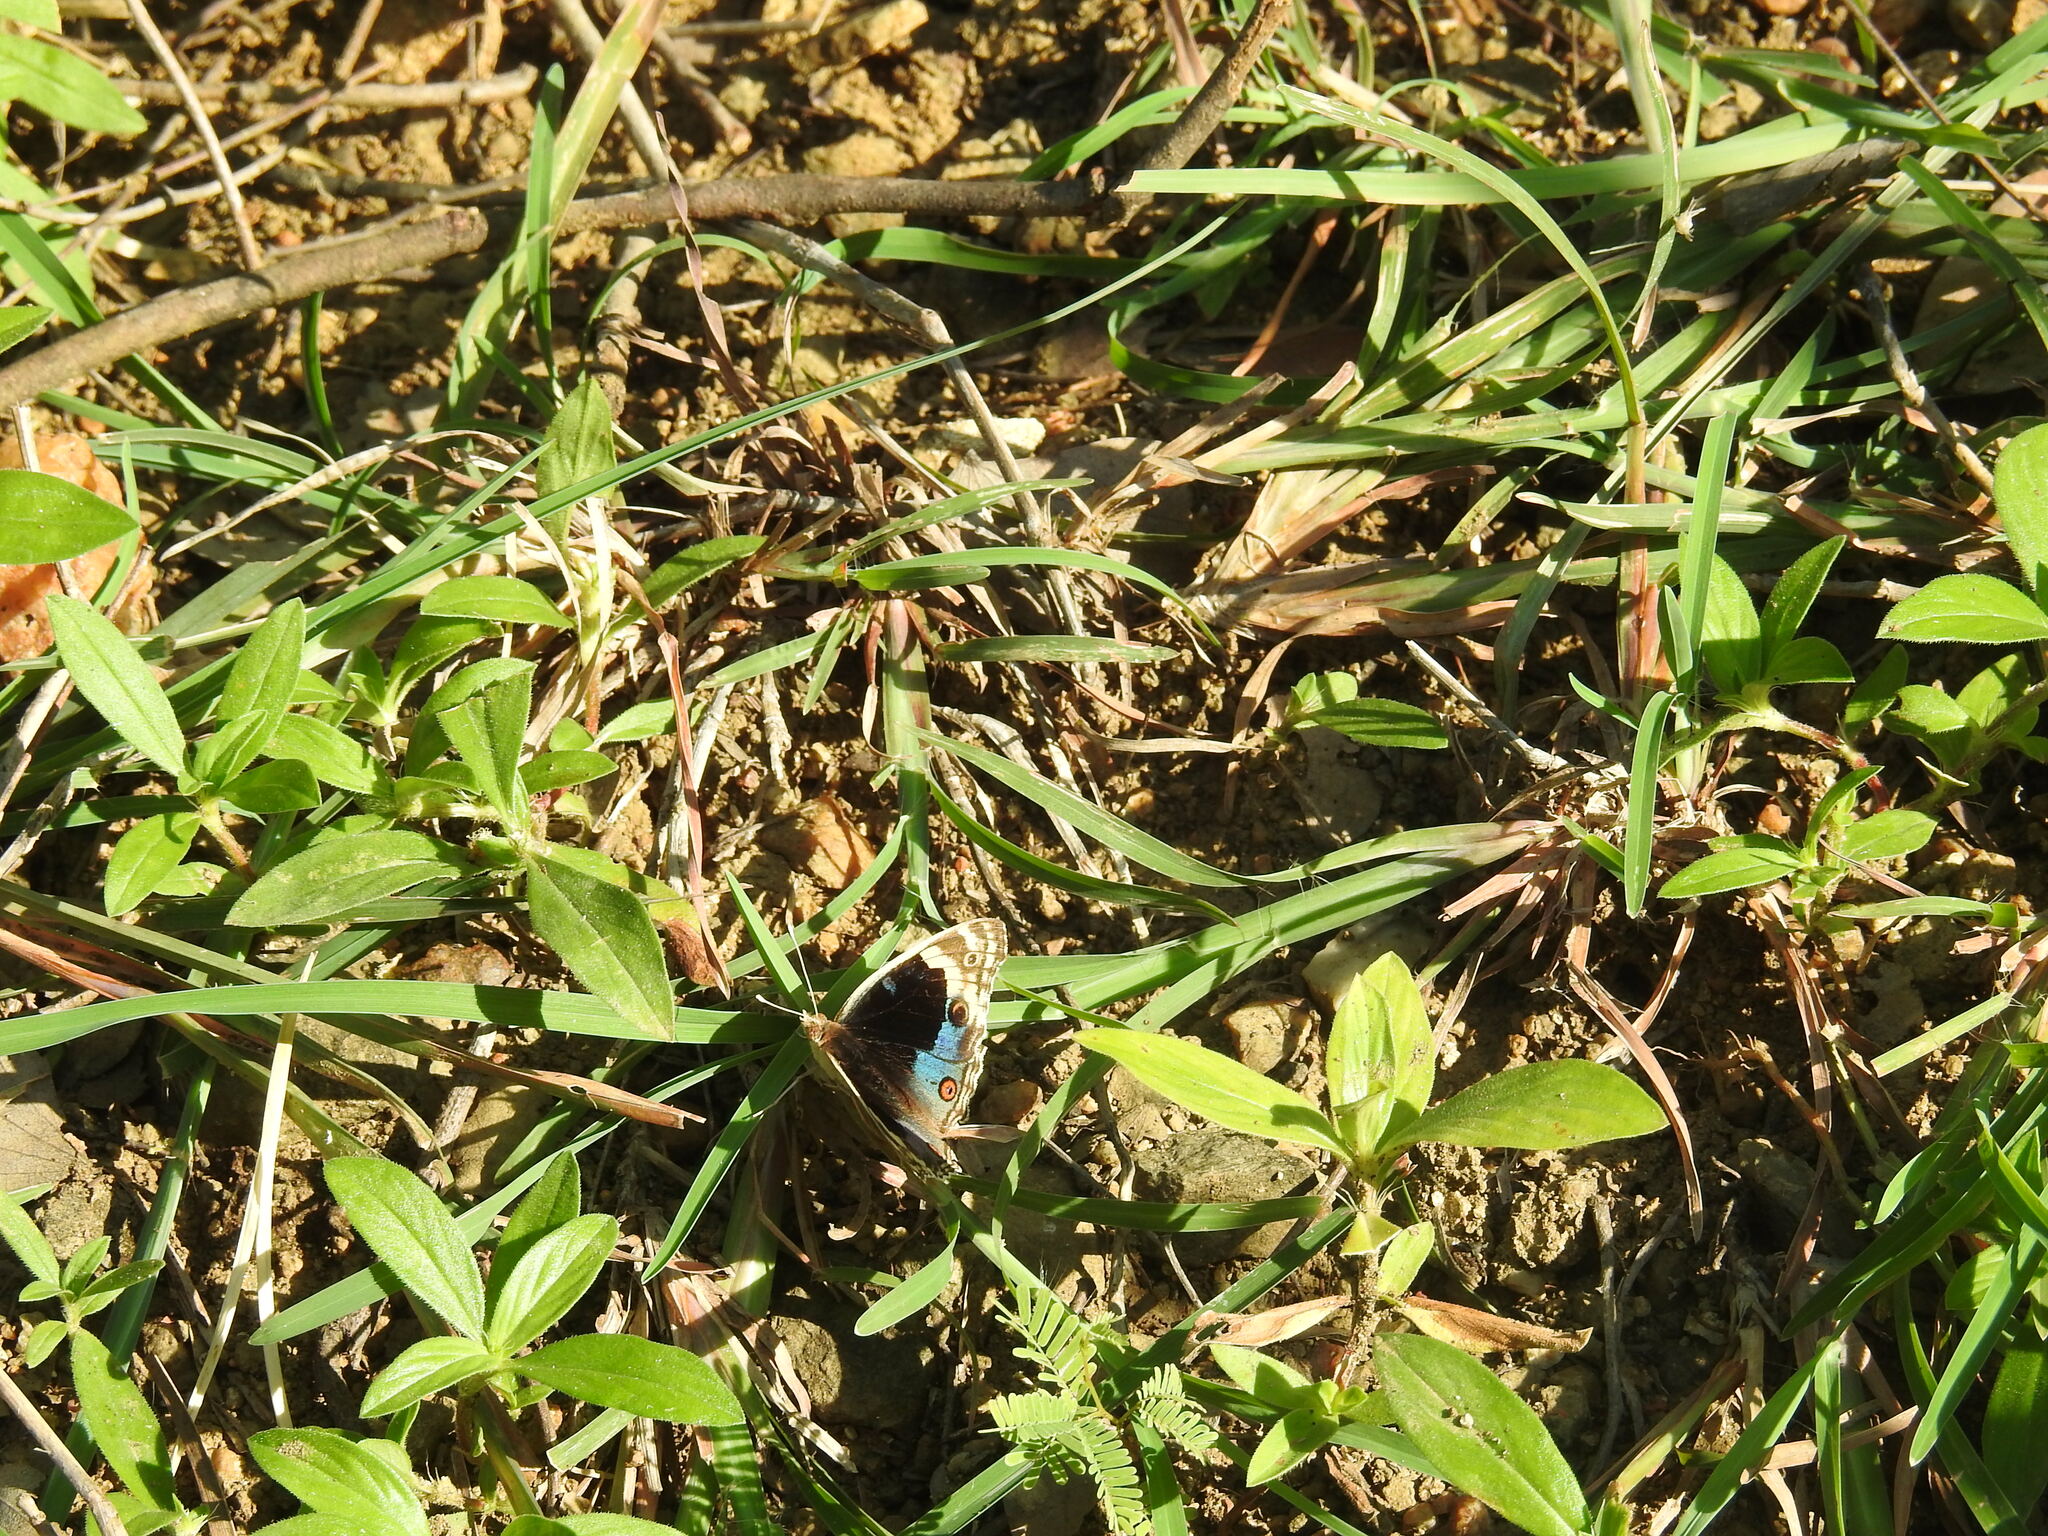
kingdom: Animalia
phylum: Arthropoda
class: Insecta
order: Lepidoptera
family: Nymphalidae
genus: Junonia
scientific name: Junonia orithya
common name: Blue pansy
